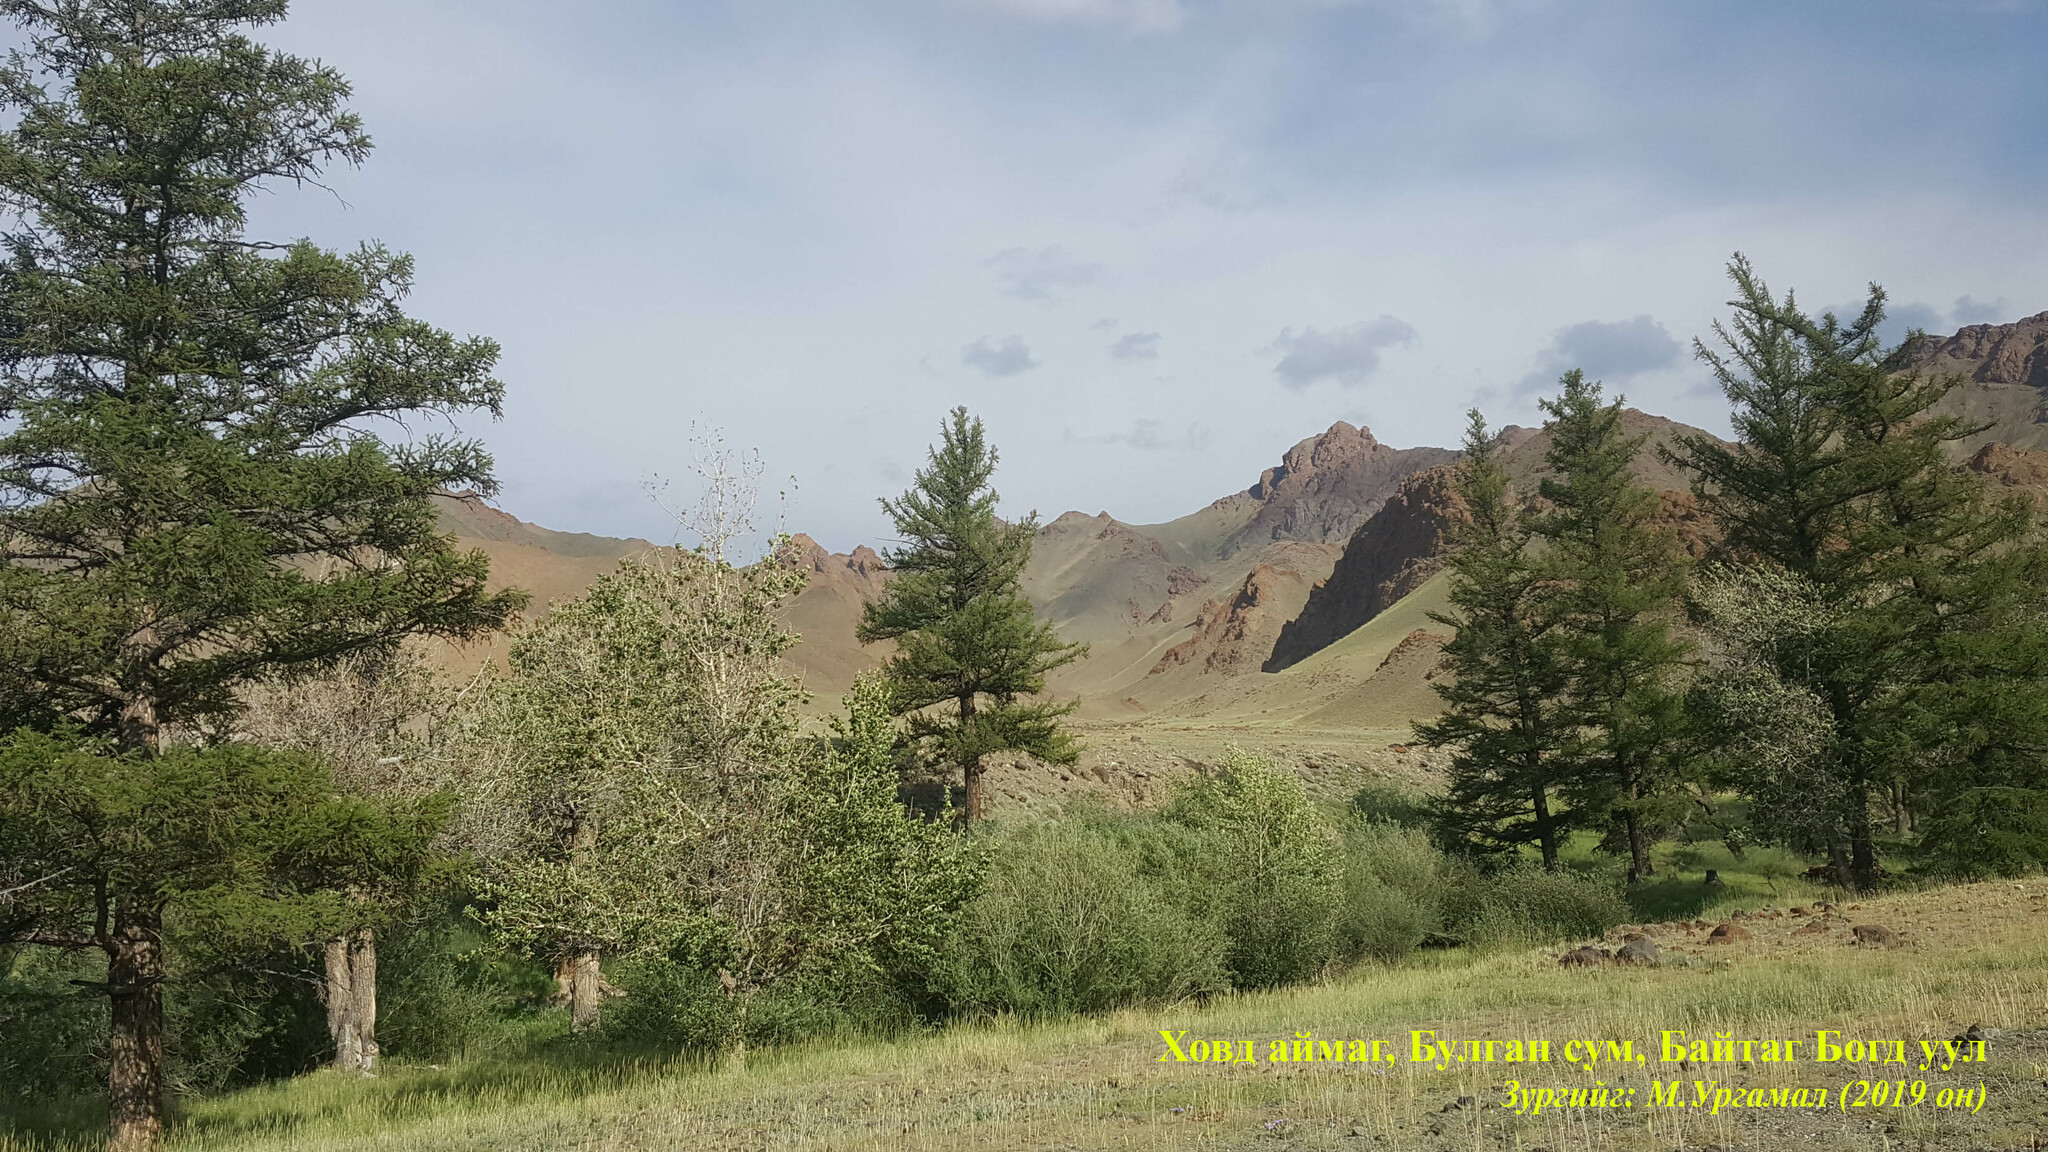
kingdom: Plantae
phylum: Tracheophyta
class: Pinopsida
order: Pinales
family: Pinaceae
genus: Larix
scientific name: Larix sibirica
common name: Siberian larch
